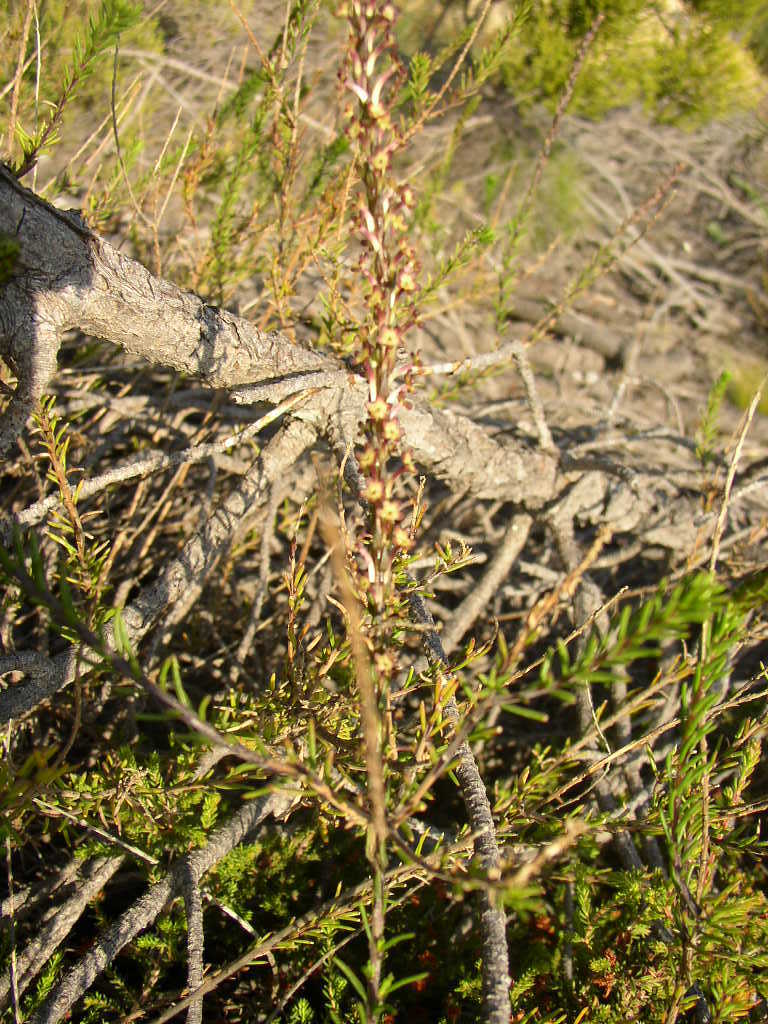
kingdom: Plantae
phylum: Tracheophyta
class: Magnoliopsida
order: Lamiales
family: Scrophulariaceae
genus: Microdon
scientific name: Microdon dubius
